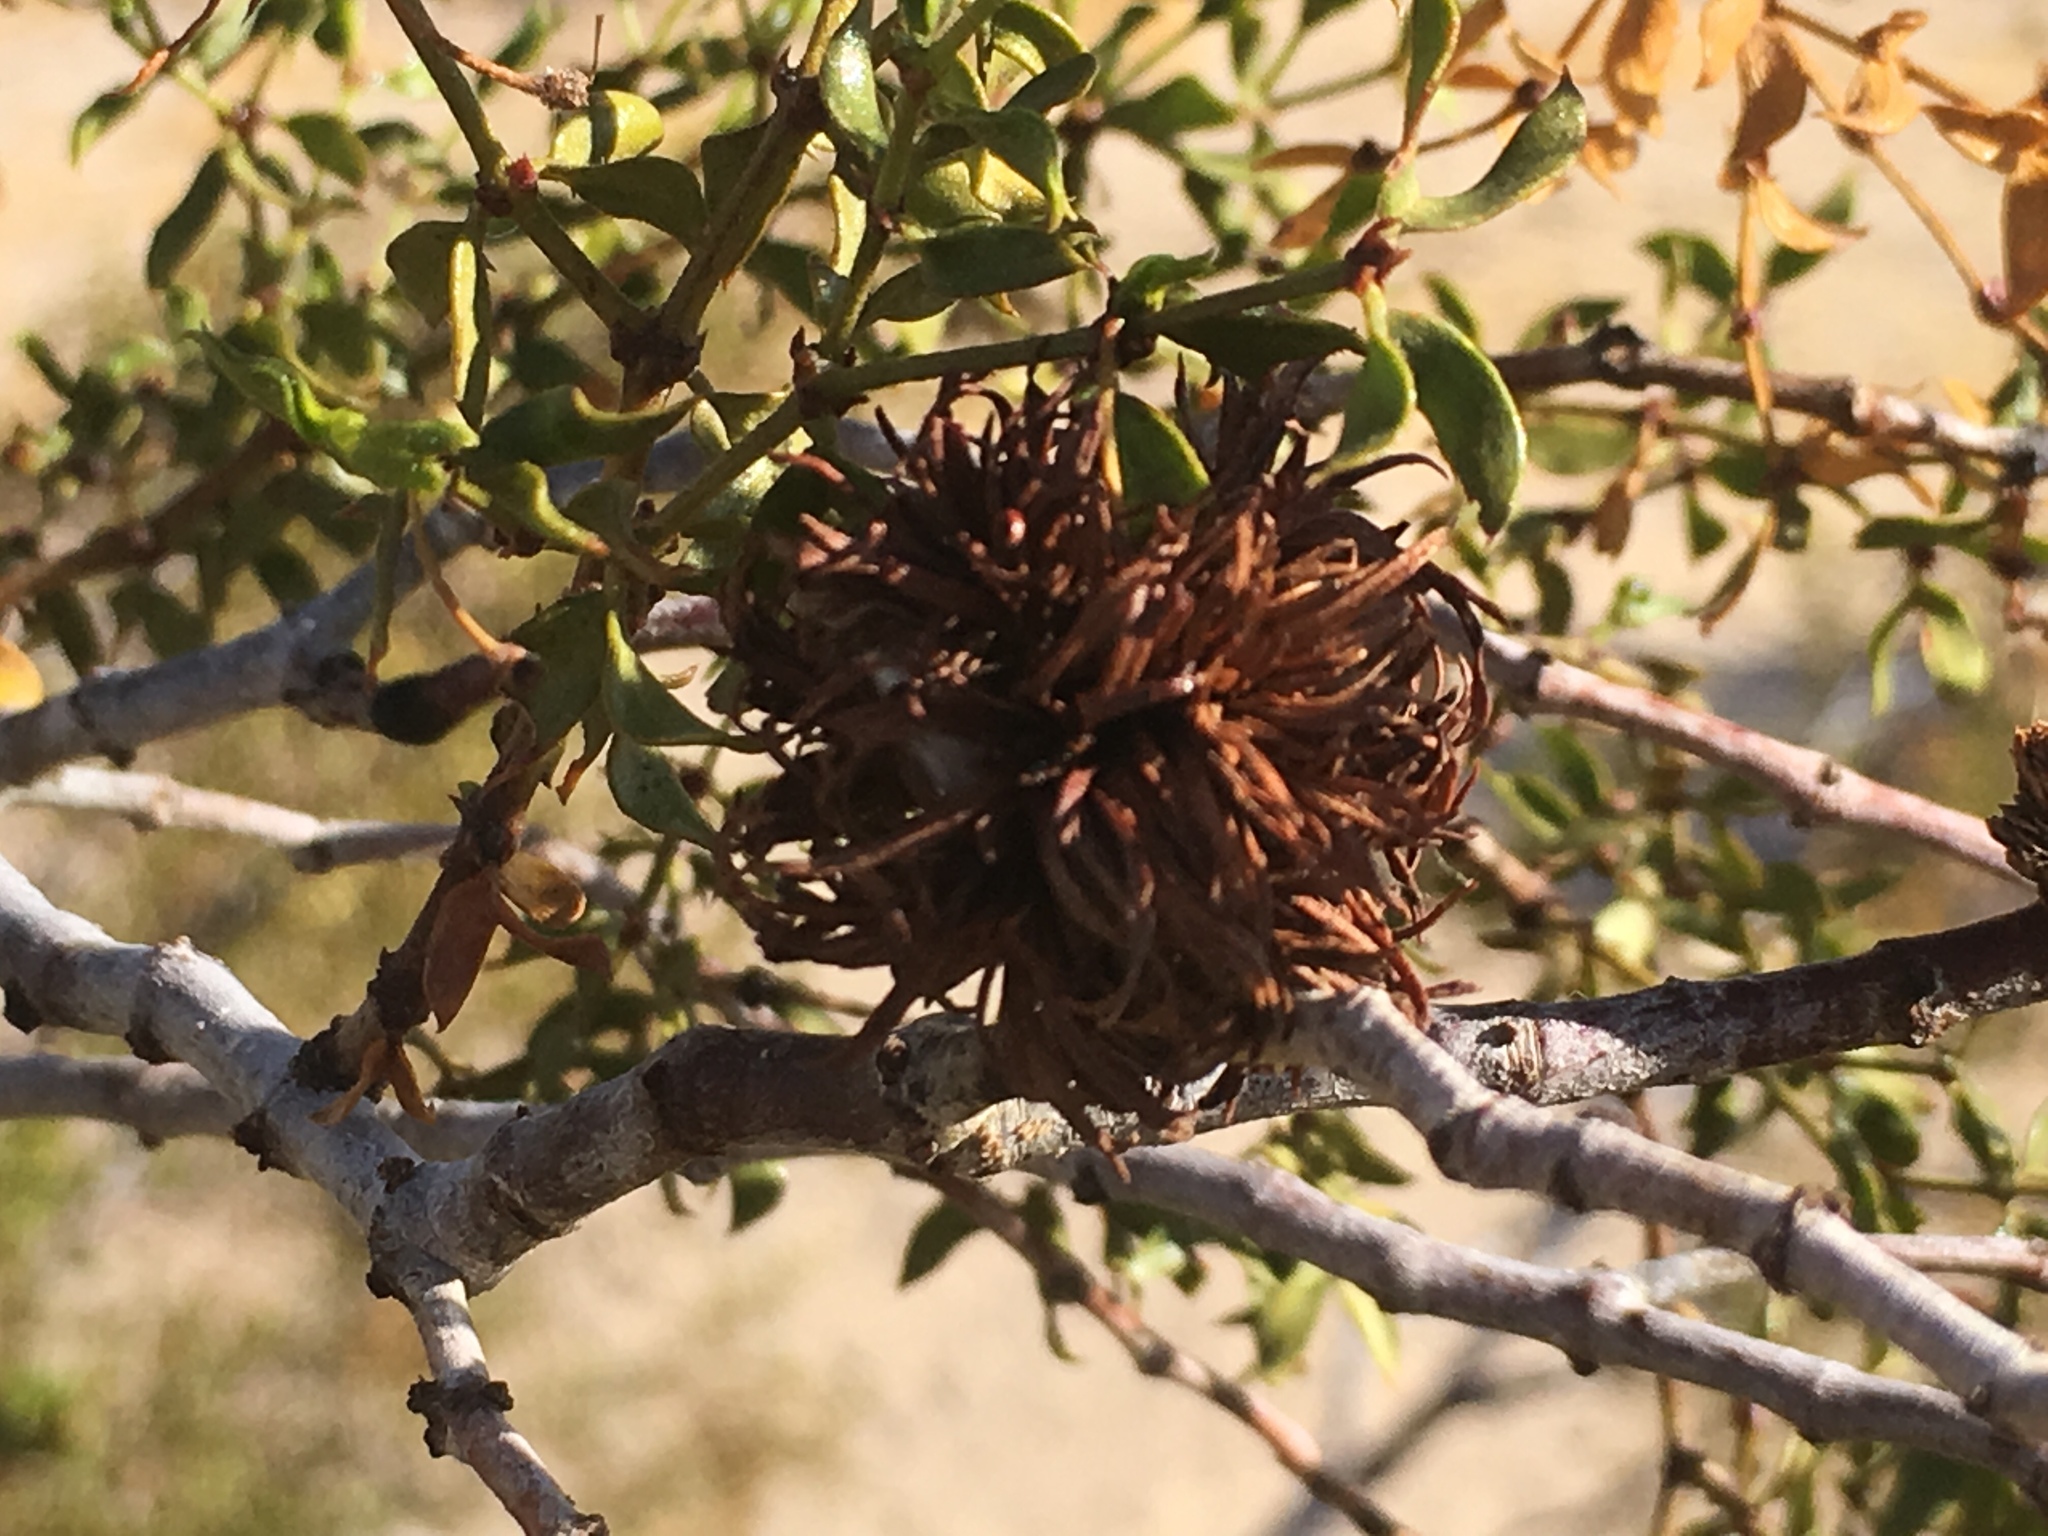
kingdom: Animalia
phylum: Arthropoda
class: Insecta
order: Diptera
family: Cecidomyiidae
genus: Asphondylia
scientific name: Asphondylia auripila
